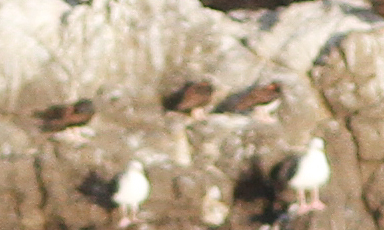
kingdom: Animalia
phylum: Chordata
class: Aves
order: Charadriiformes
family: Haematopodidae
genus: Haematopus
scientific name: Haematopus bachmani
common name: Black oystercatcher
